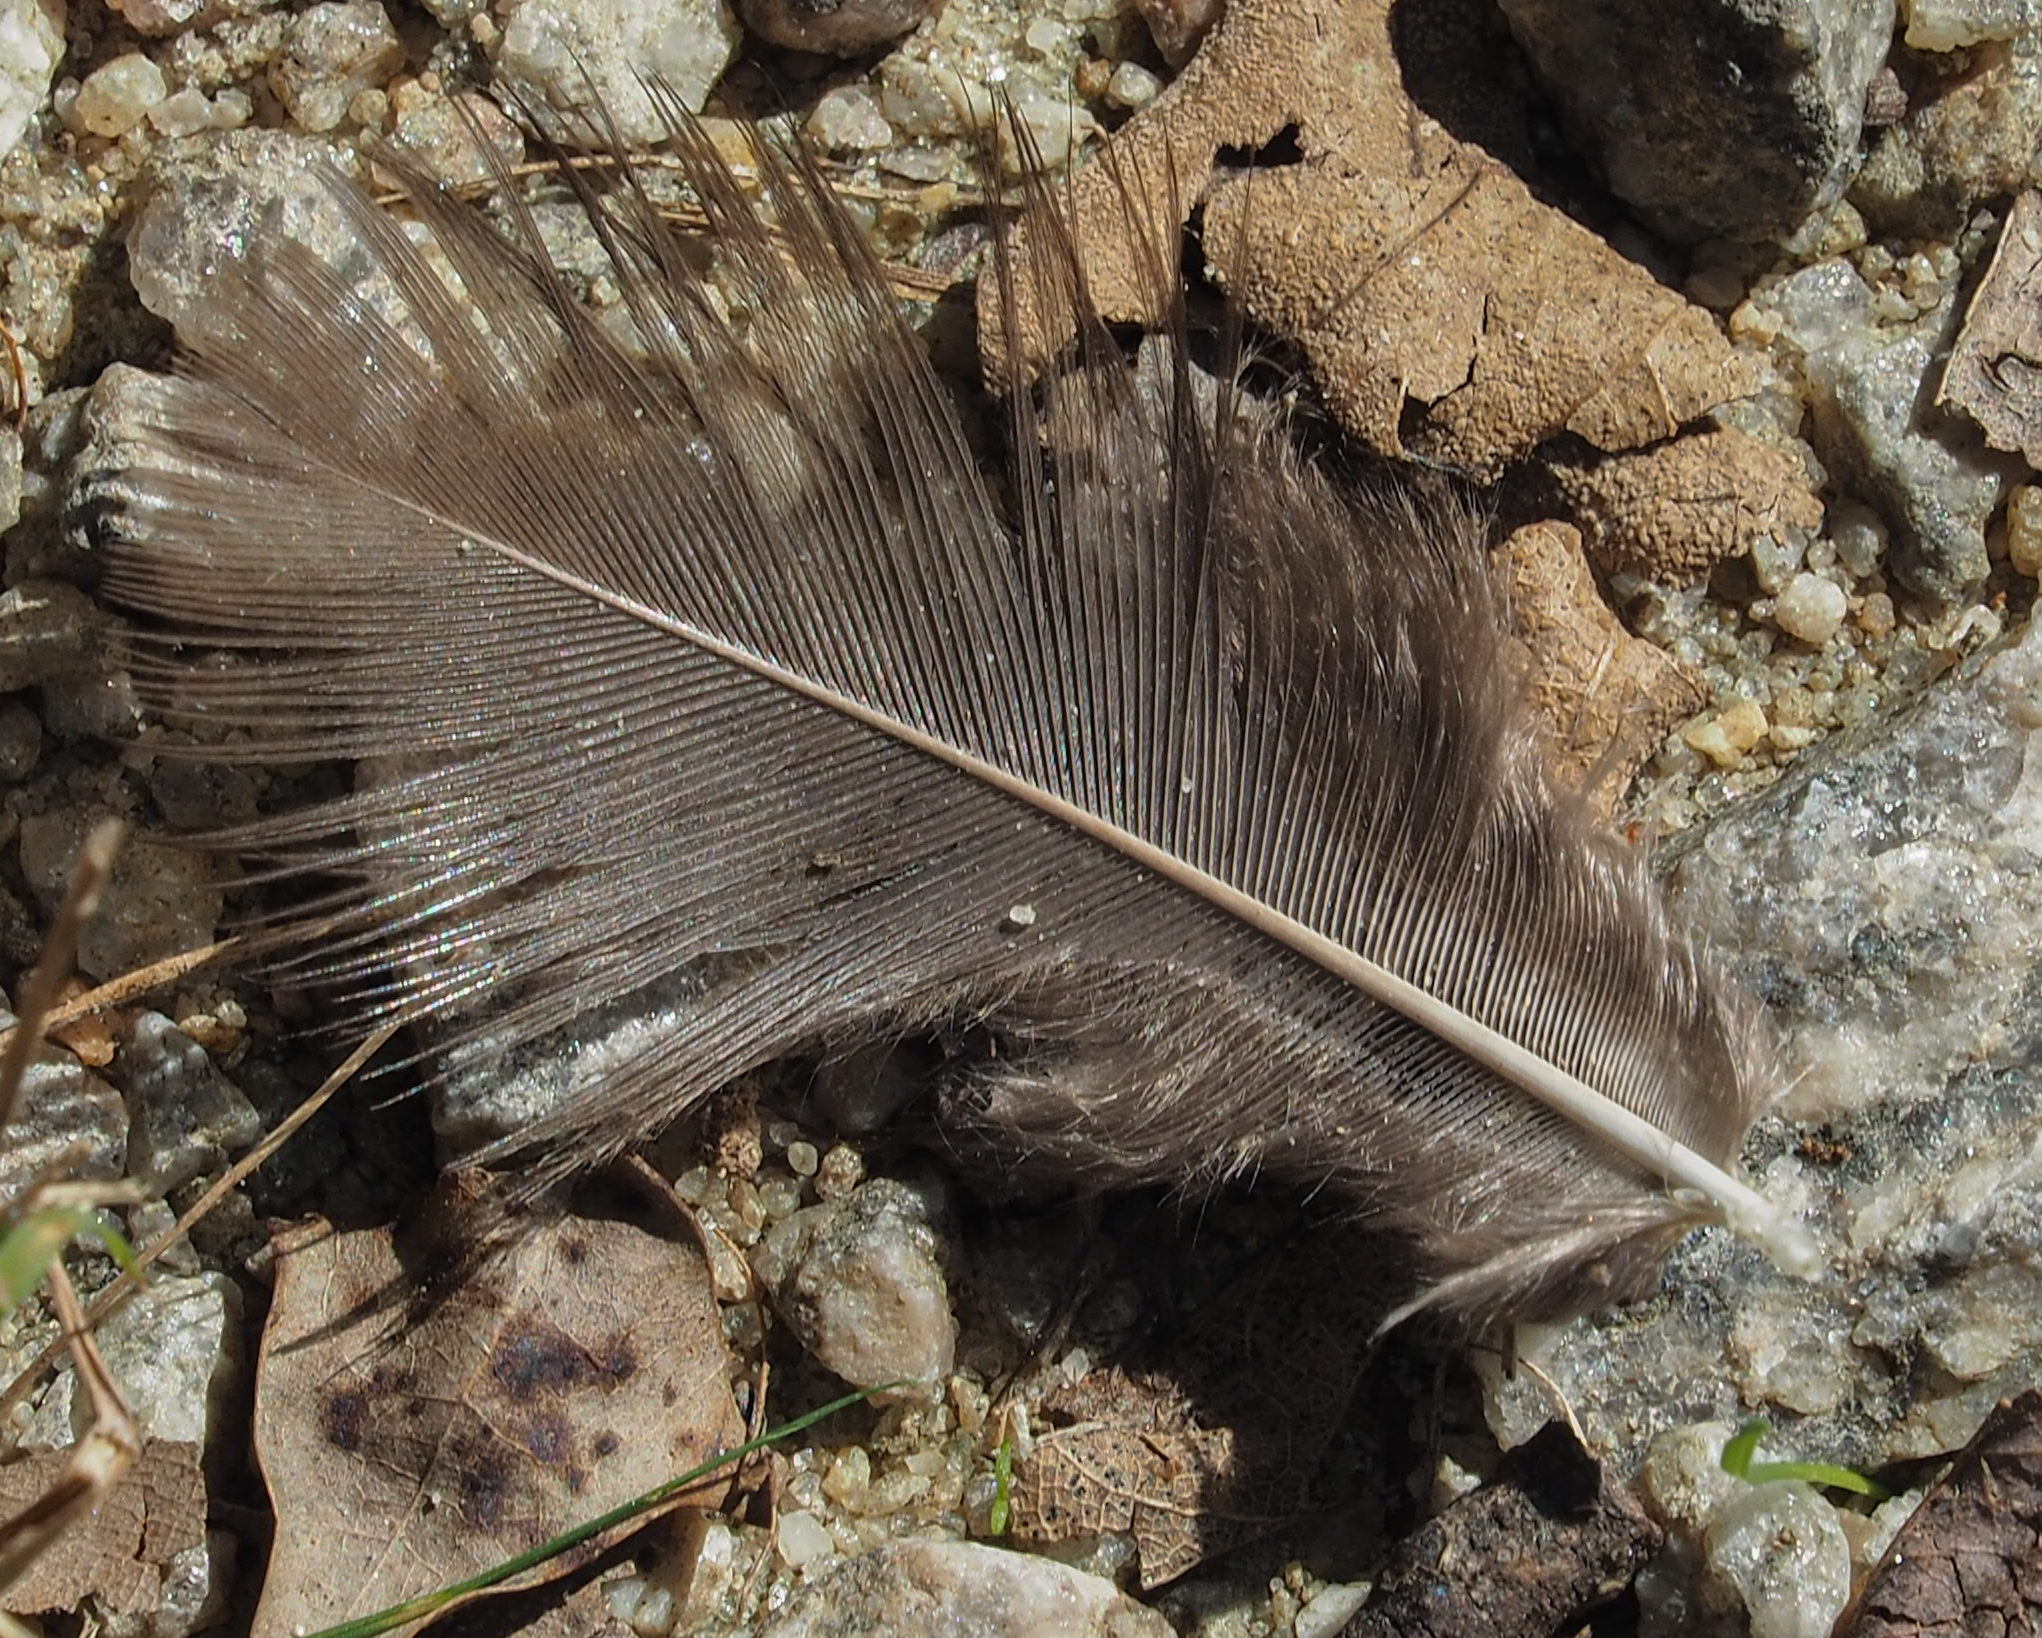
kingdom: Animalia
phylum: Chordata
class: Aves
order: Galliformes
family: Phasianidae
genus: Meleagris
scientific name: Meleagris gallopavo
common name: Wild turkey
